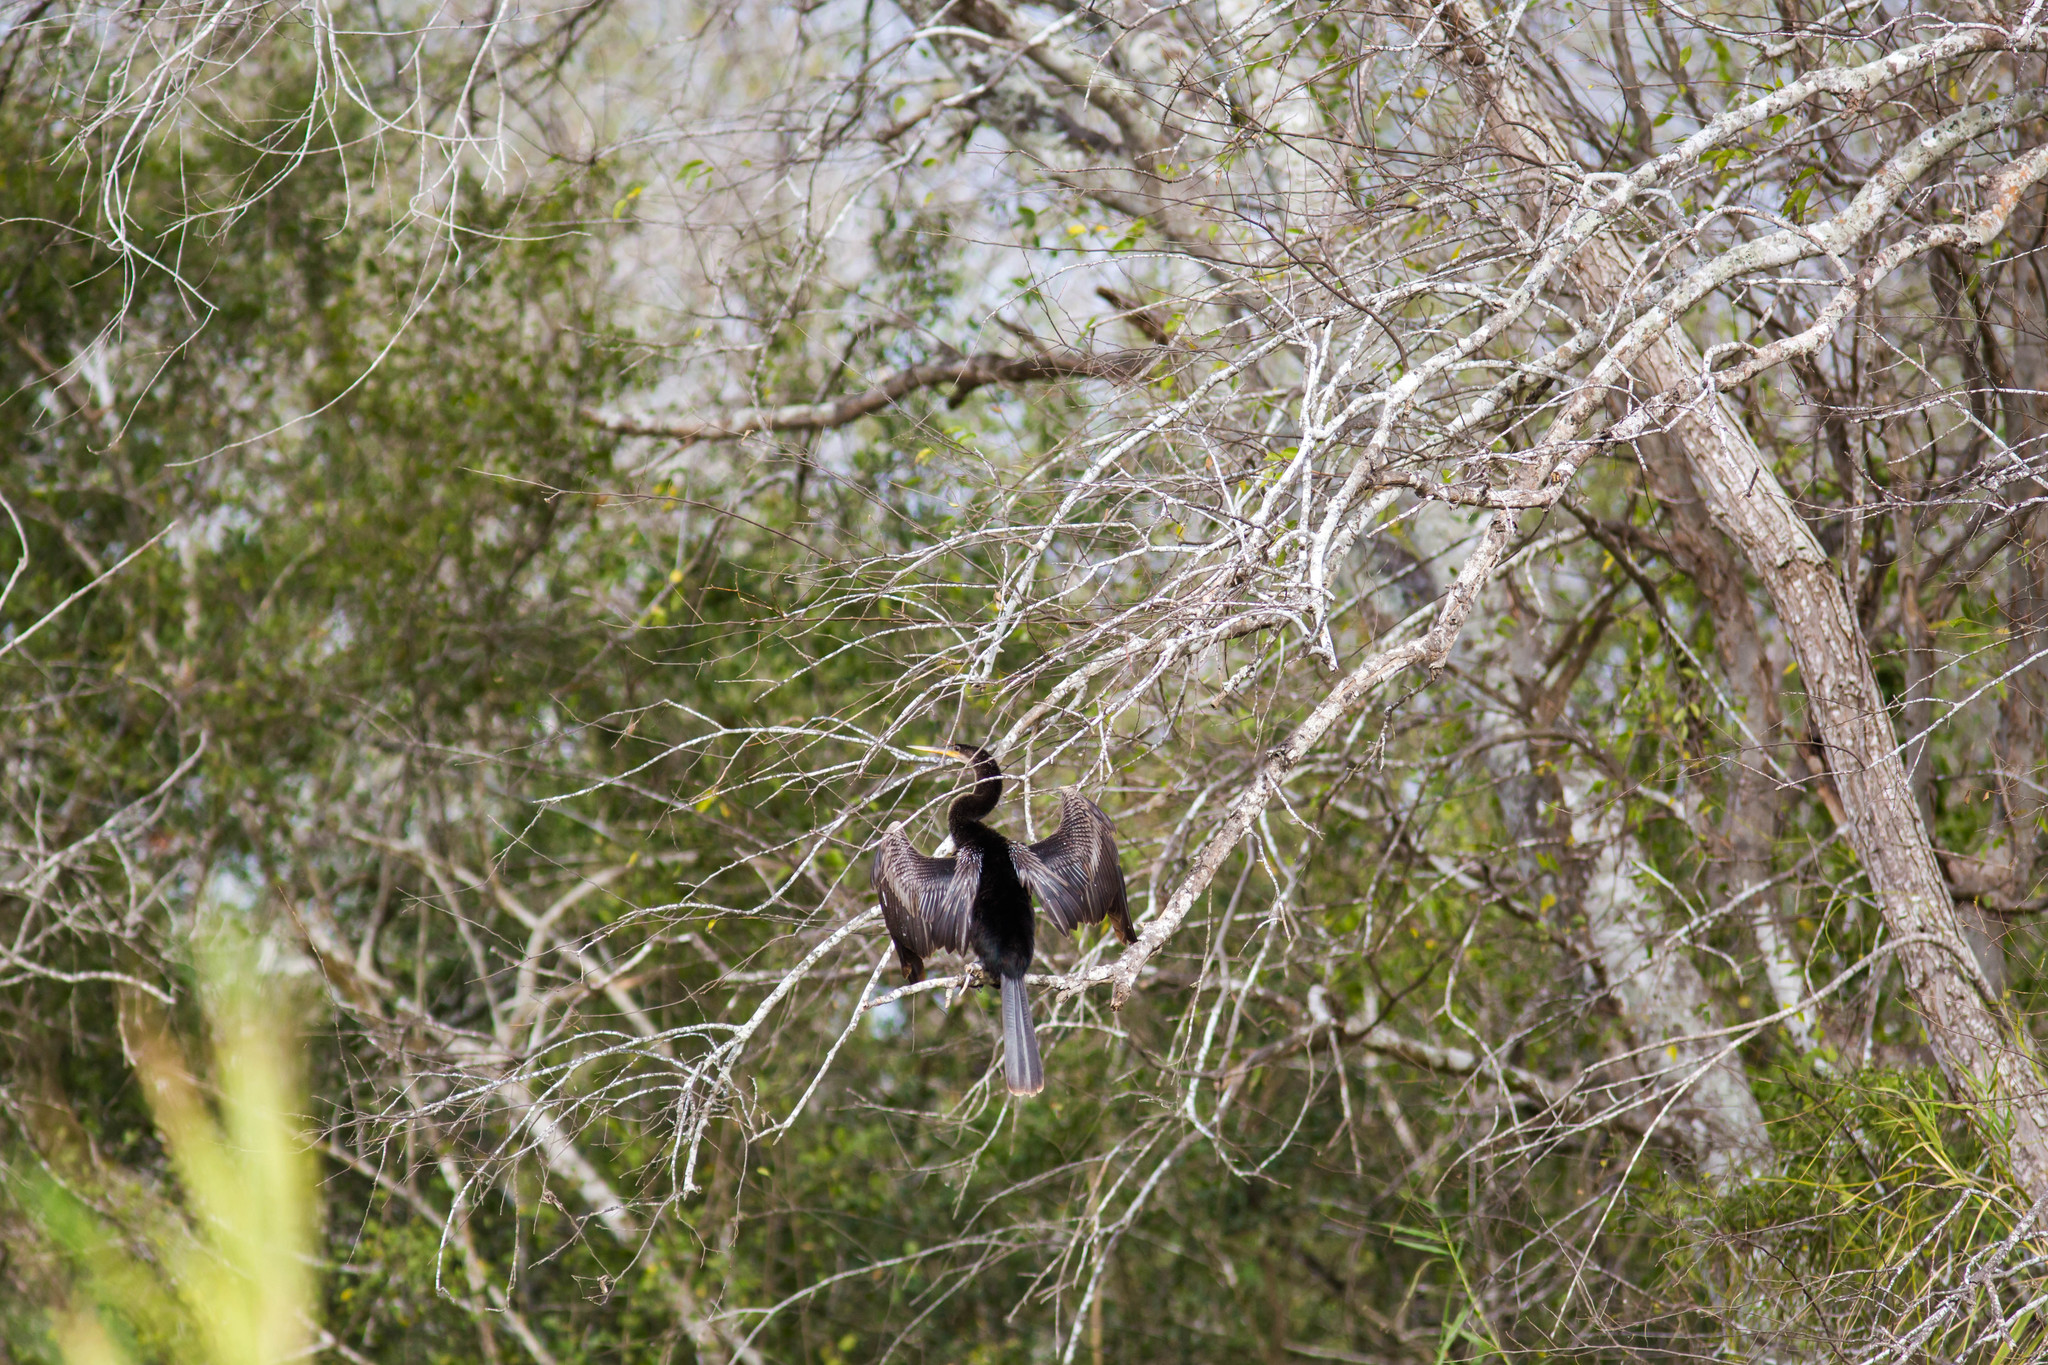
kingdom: Animalia
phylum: Chordata
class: Aves
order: Suliformes
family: Anhingidae
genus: Anhinga
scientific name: Anhinga anhinga
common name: Anhinga
